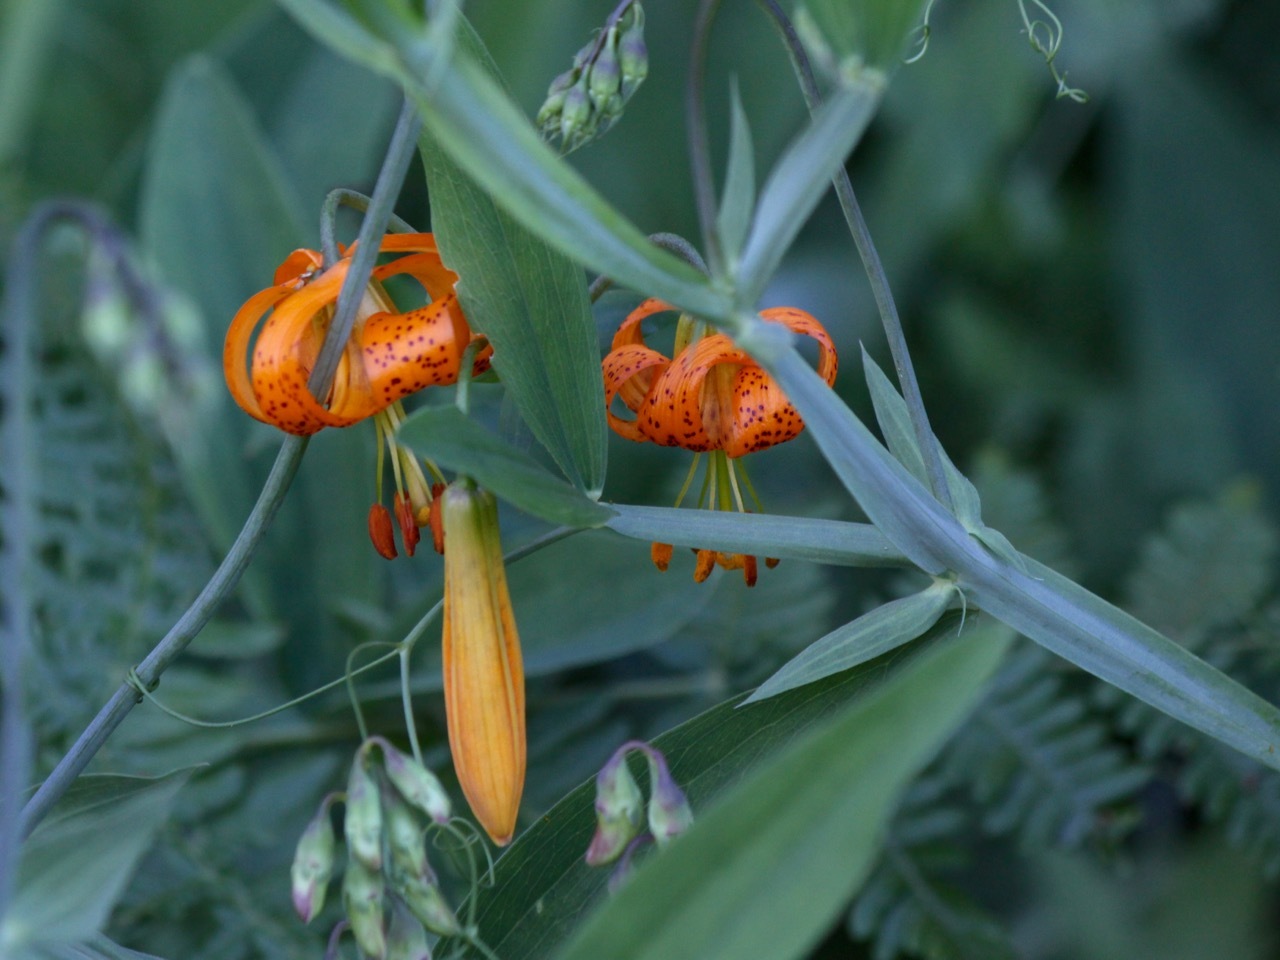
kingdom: Plantae
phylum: Tracheophyta
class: Liliopsida
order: Liliales
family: Liliaceae
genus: Lilium
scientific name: Lilium columbianum
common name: Columbia lily
